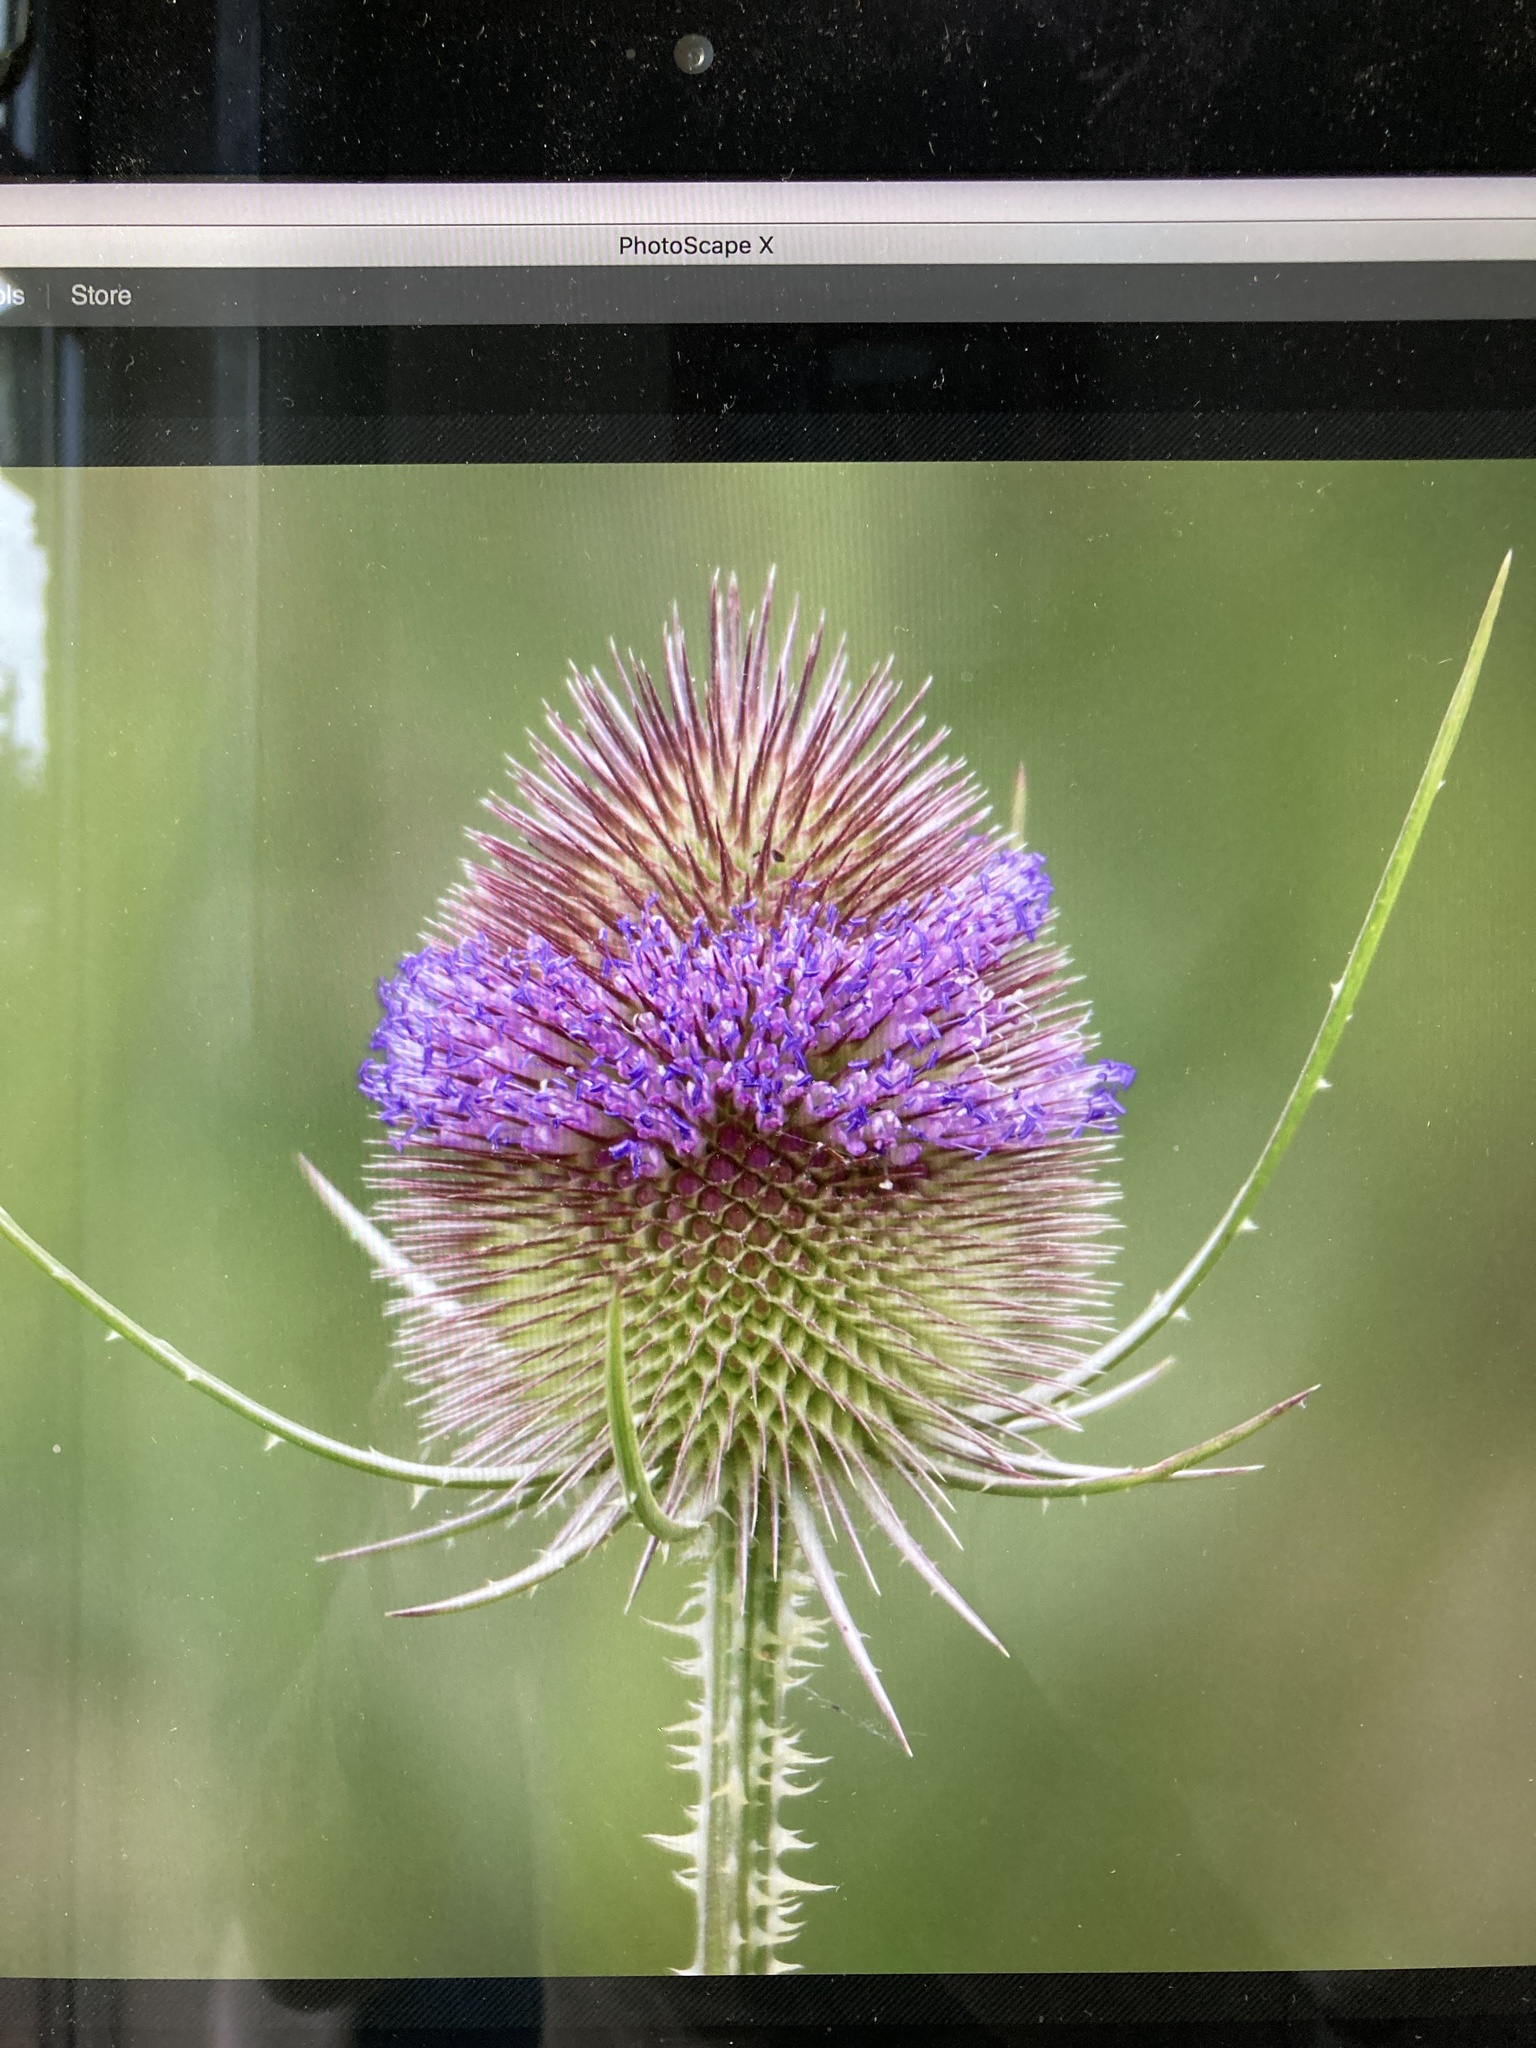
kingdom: Plantae
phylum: Tracheophyta
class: Magnoliopsida
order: Dipsacales
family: Caprifoliaceae
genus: Dipsacus
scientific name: Dipsacus fullonum
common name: Teasel
